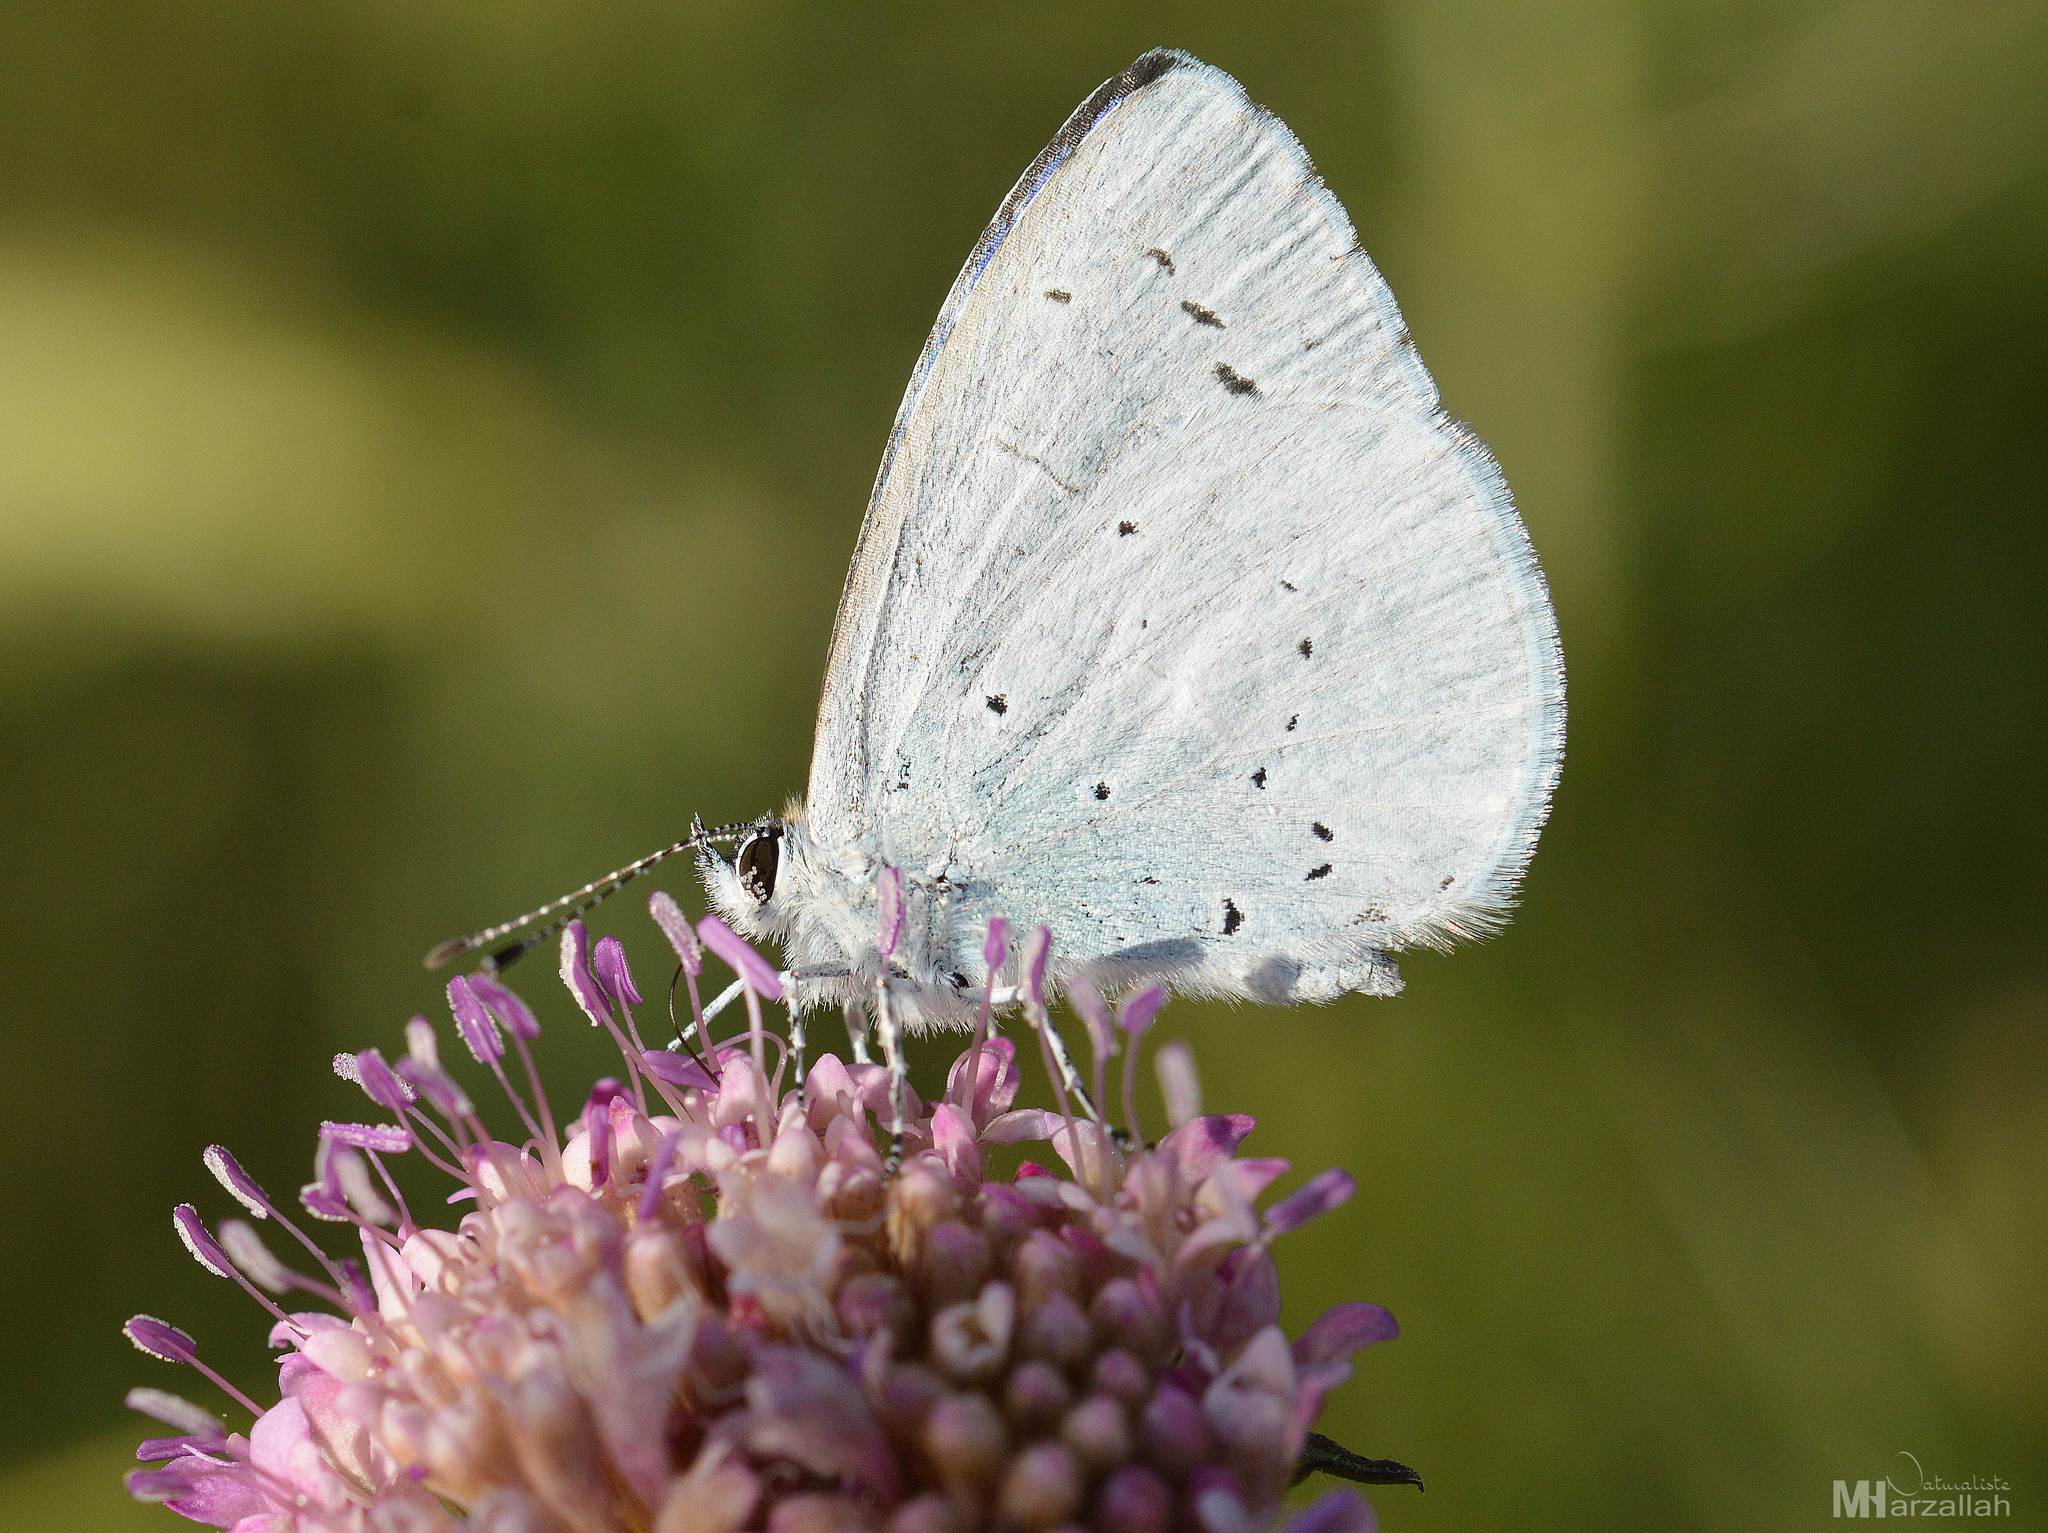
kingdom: Animalia
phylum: Arthropoda
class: Insecta
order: Lepidoptera
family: Lycaenidae
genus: Celastrina
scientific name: Celastrina argiolus
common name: Holly blue
